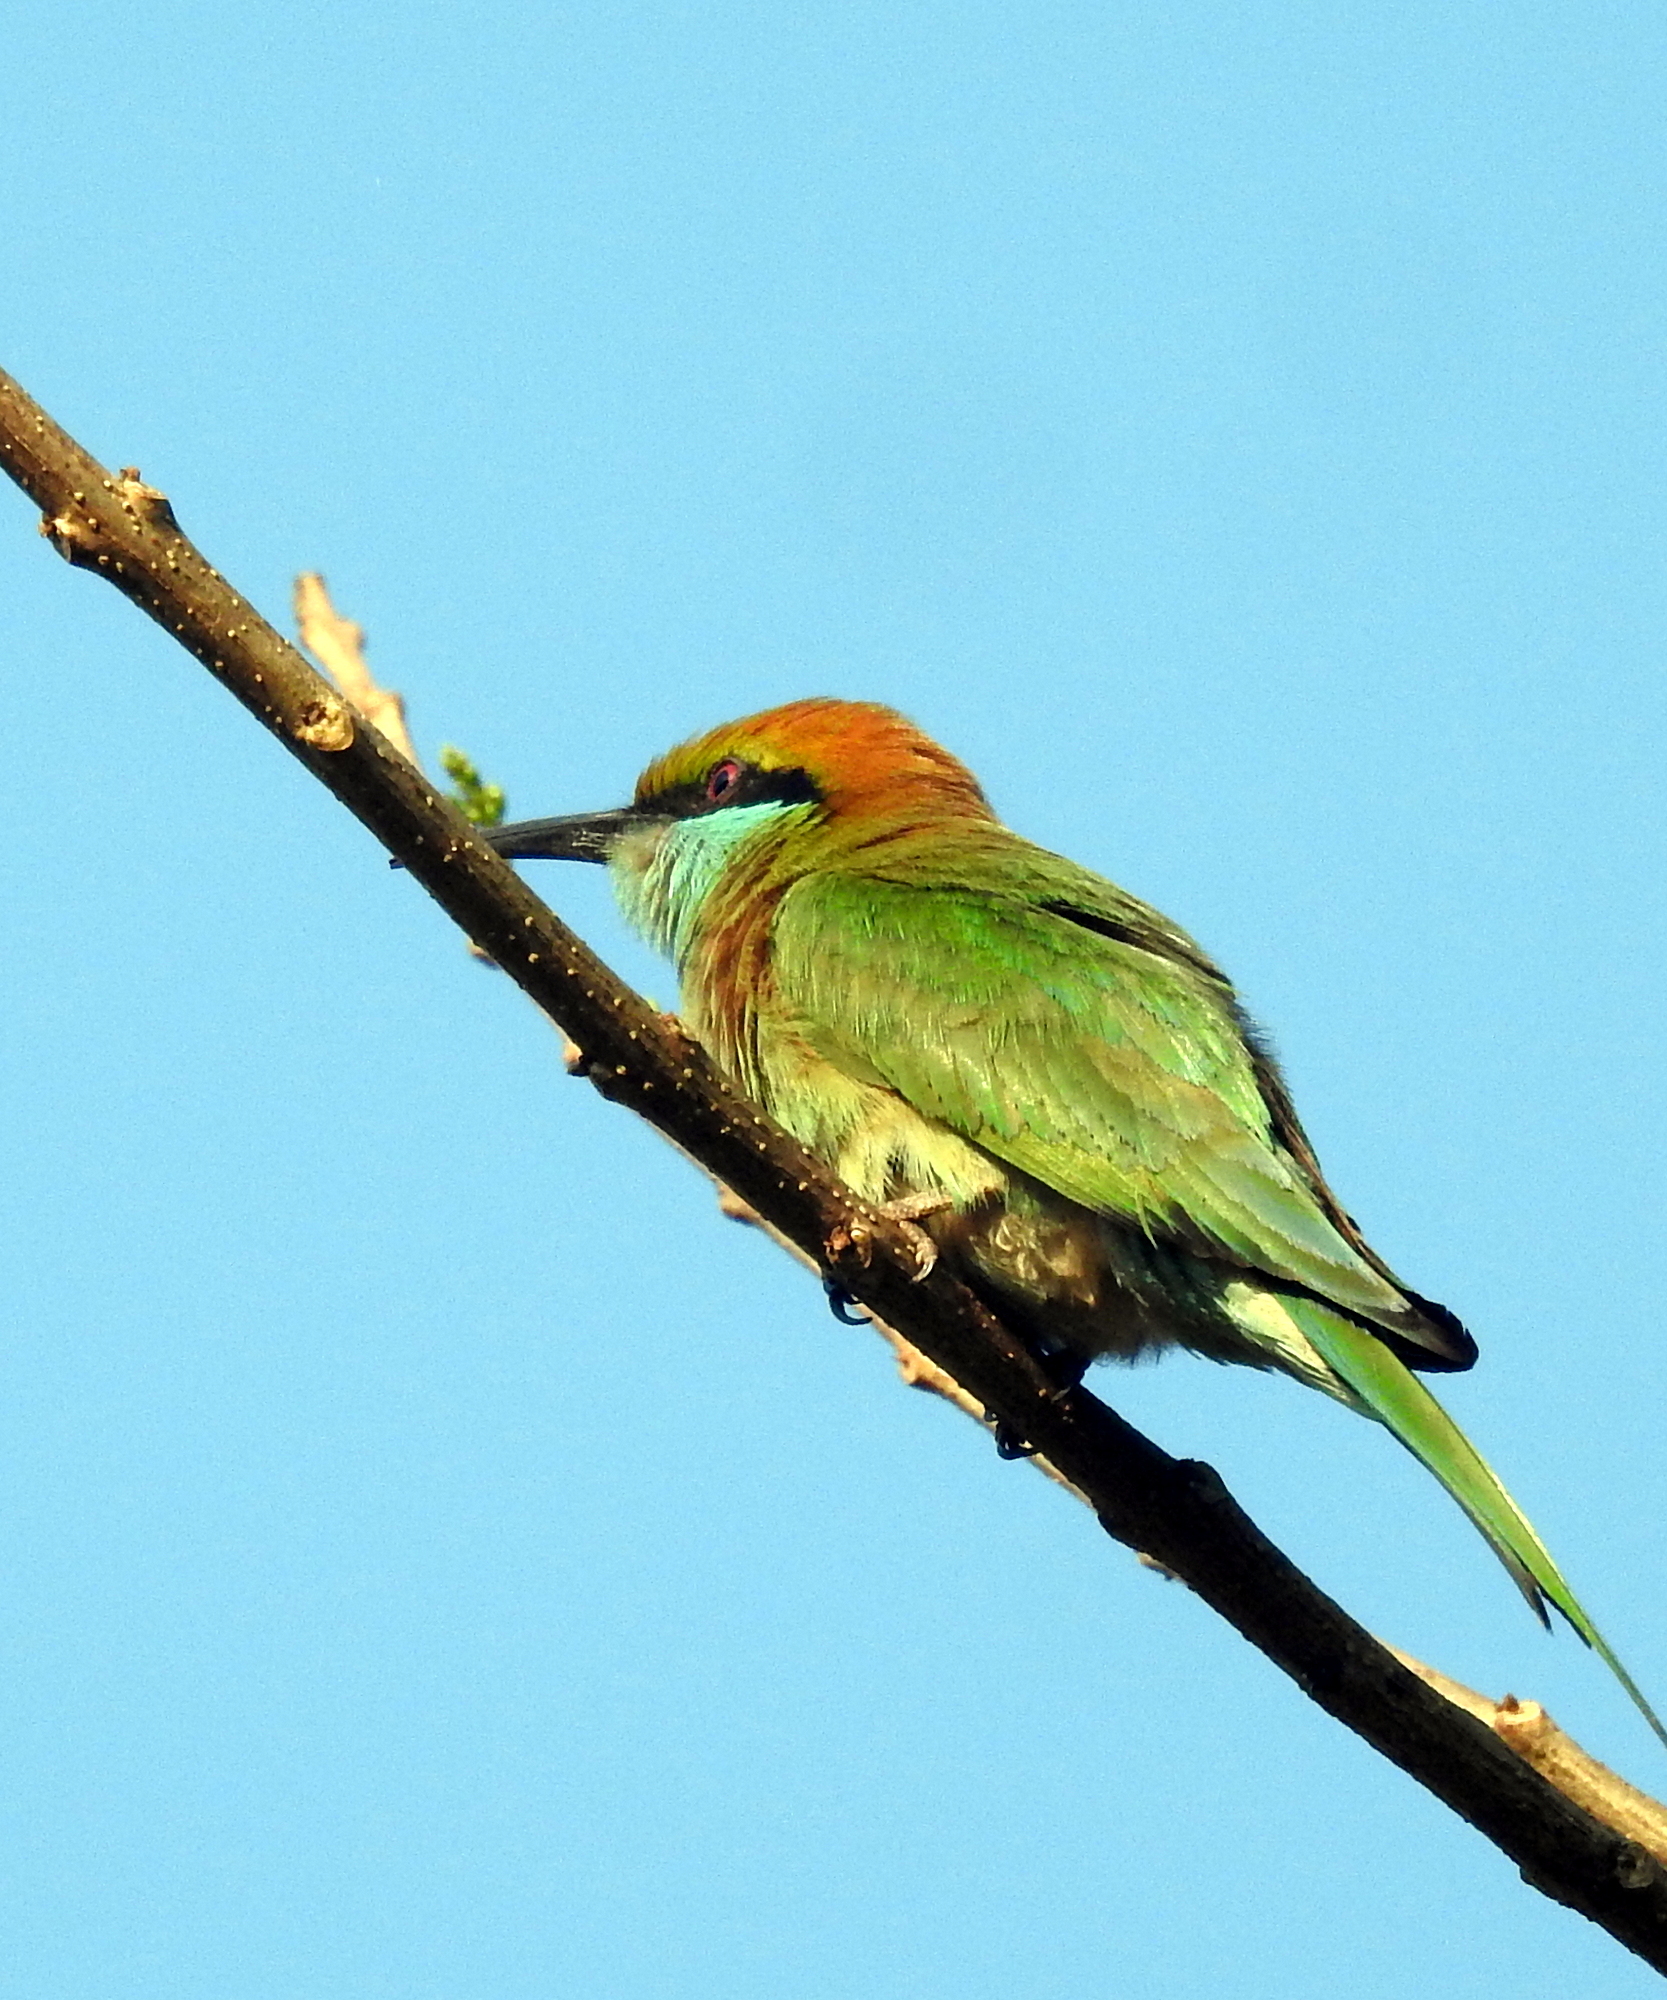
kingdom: Animalia
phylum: Chordata
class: Aves
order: Coraciiformes
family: Meropidae
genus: Merops
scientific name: Merops orientalis
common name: Green bee-eater
